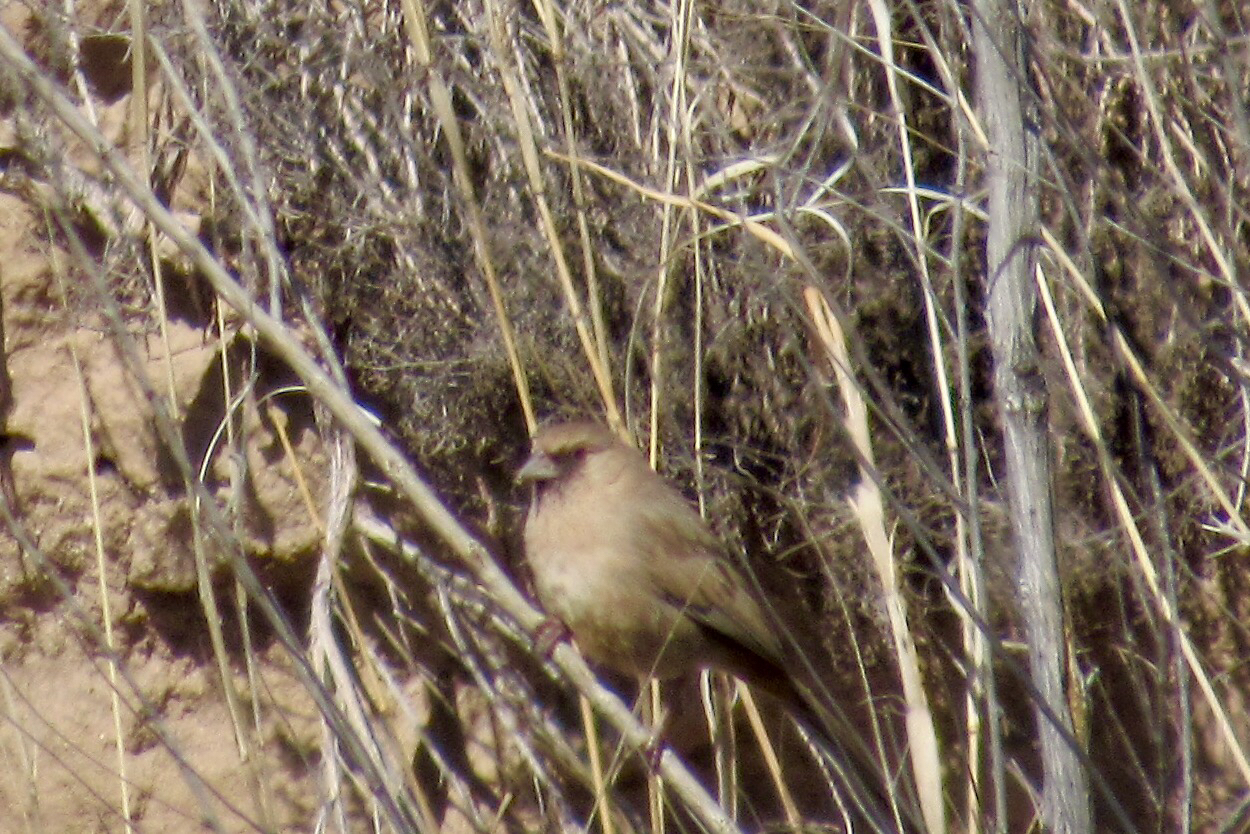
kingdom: Animalia
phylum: Chordata
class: Aves
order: Passeriformes
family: Passerellidae
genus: Melozone
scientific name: Melozone aberti
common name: Abert's towhee
